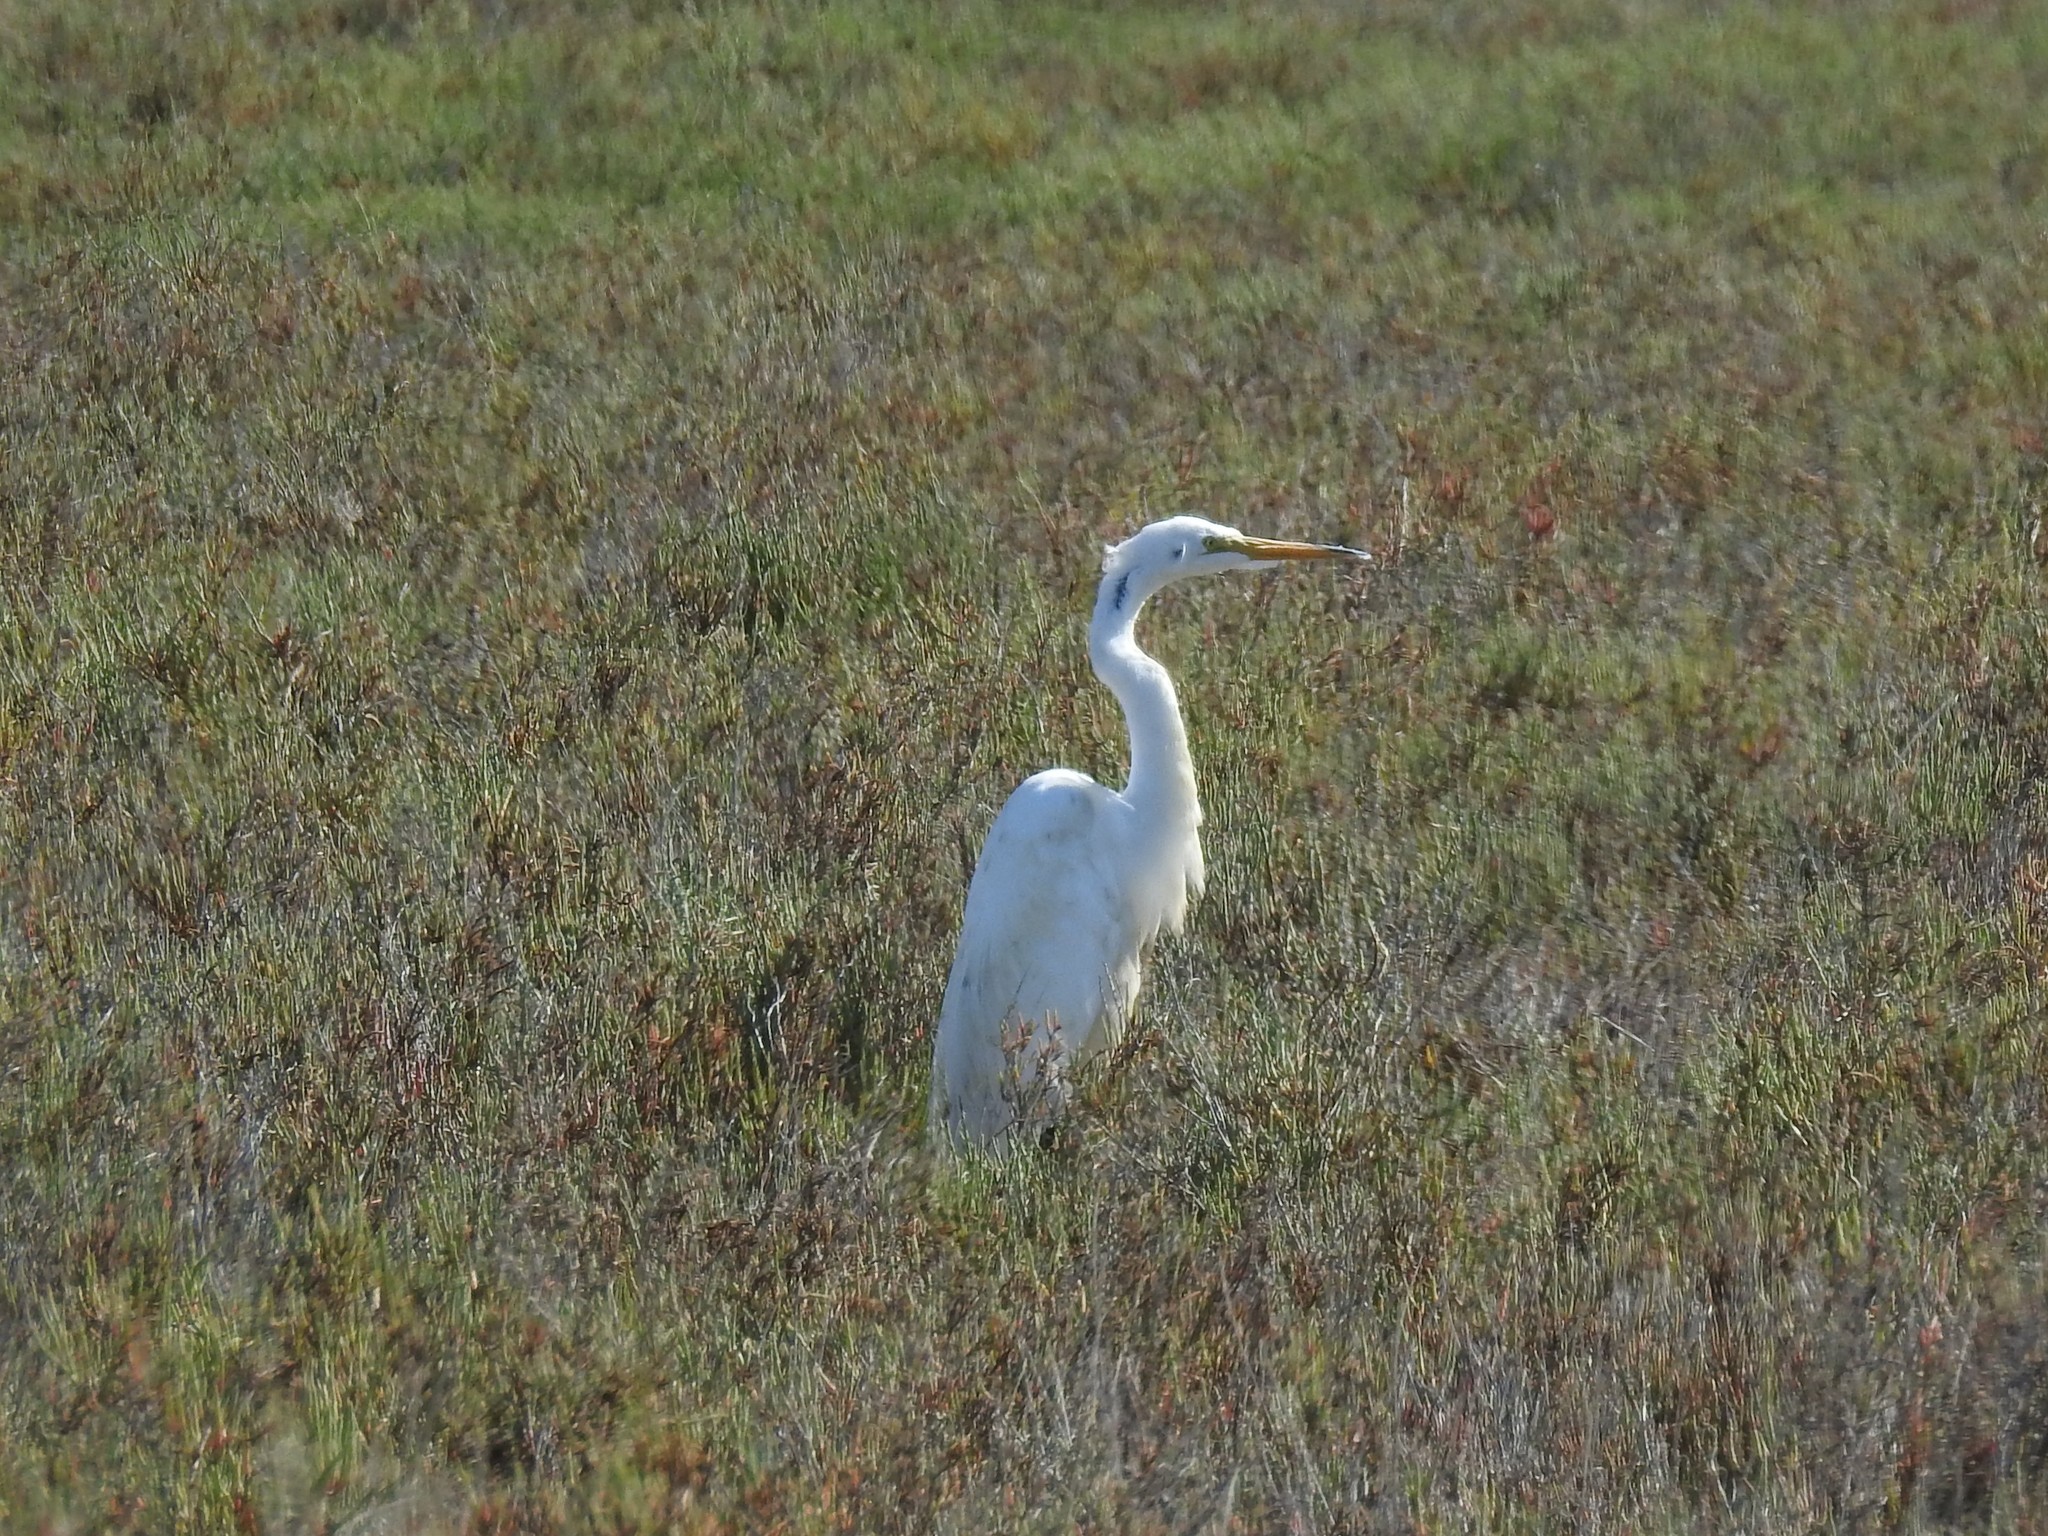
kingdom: Animalia
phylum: Chordata
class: Aves
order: Pelecaniformes
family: Ardeidae
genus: Ardea
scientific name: Ardea alba
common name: Great egret
